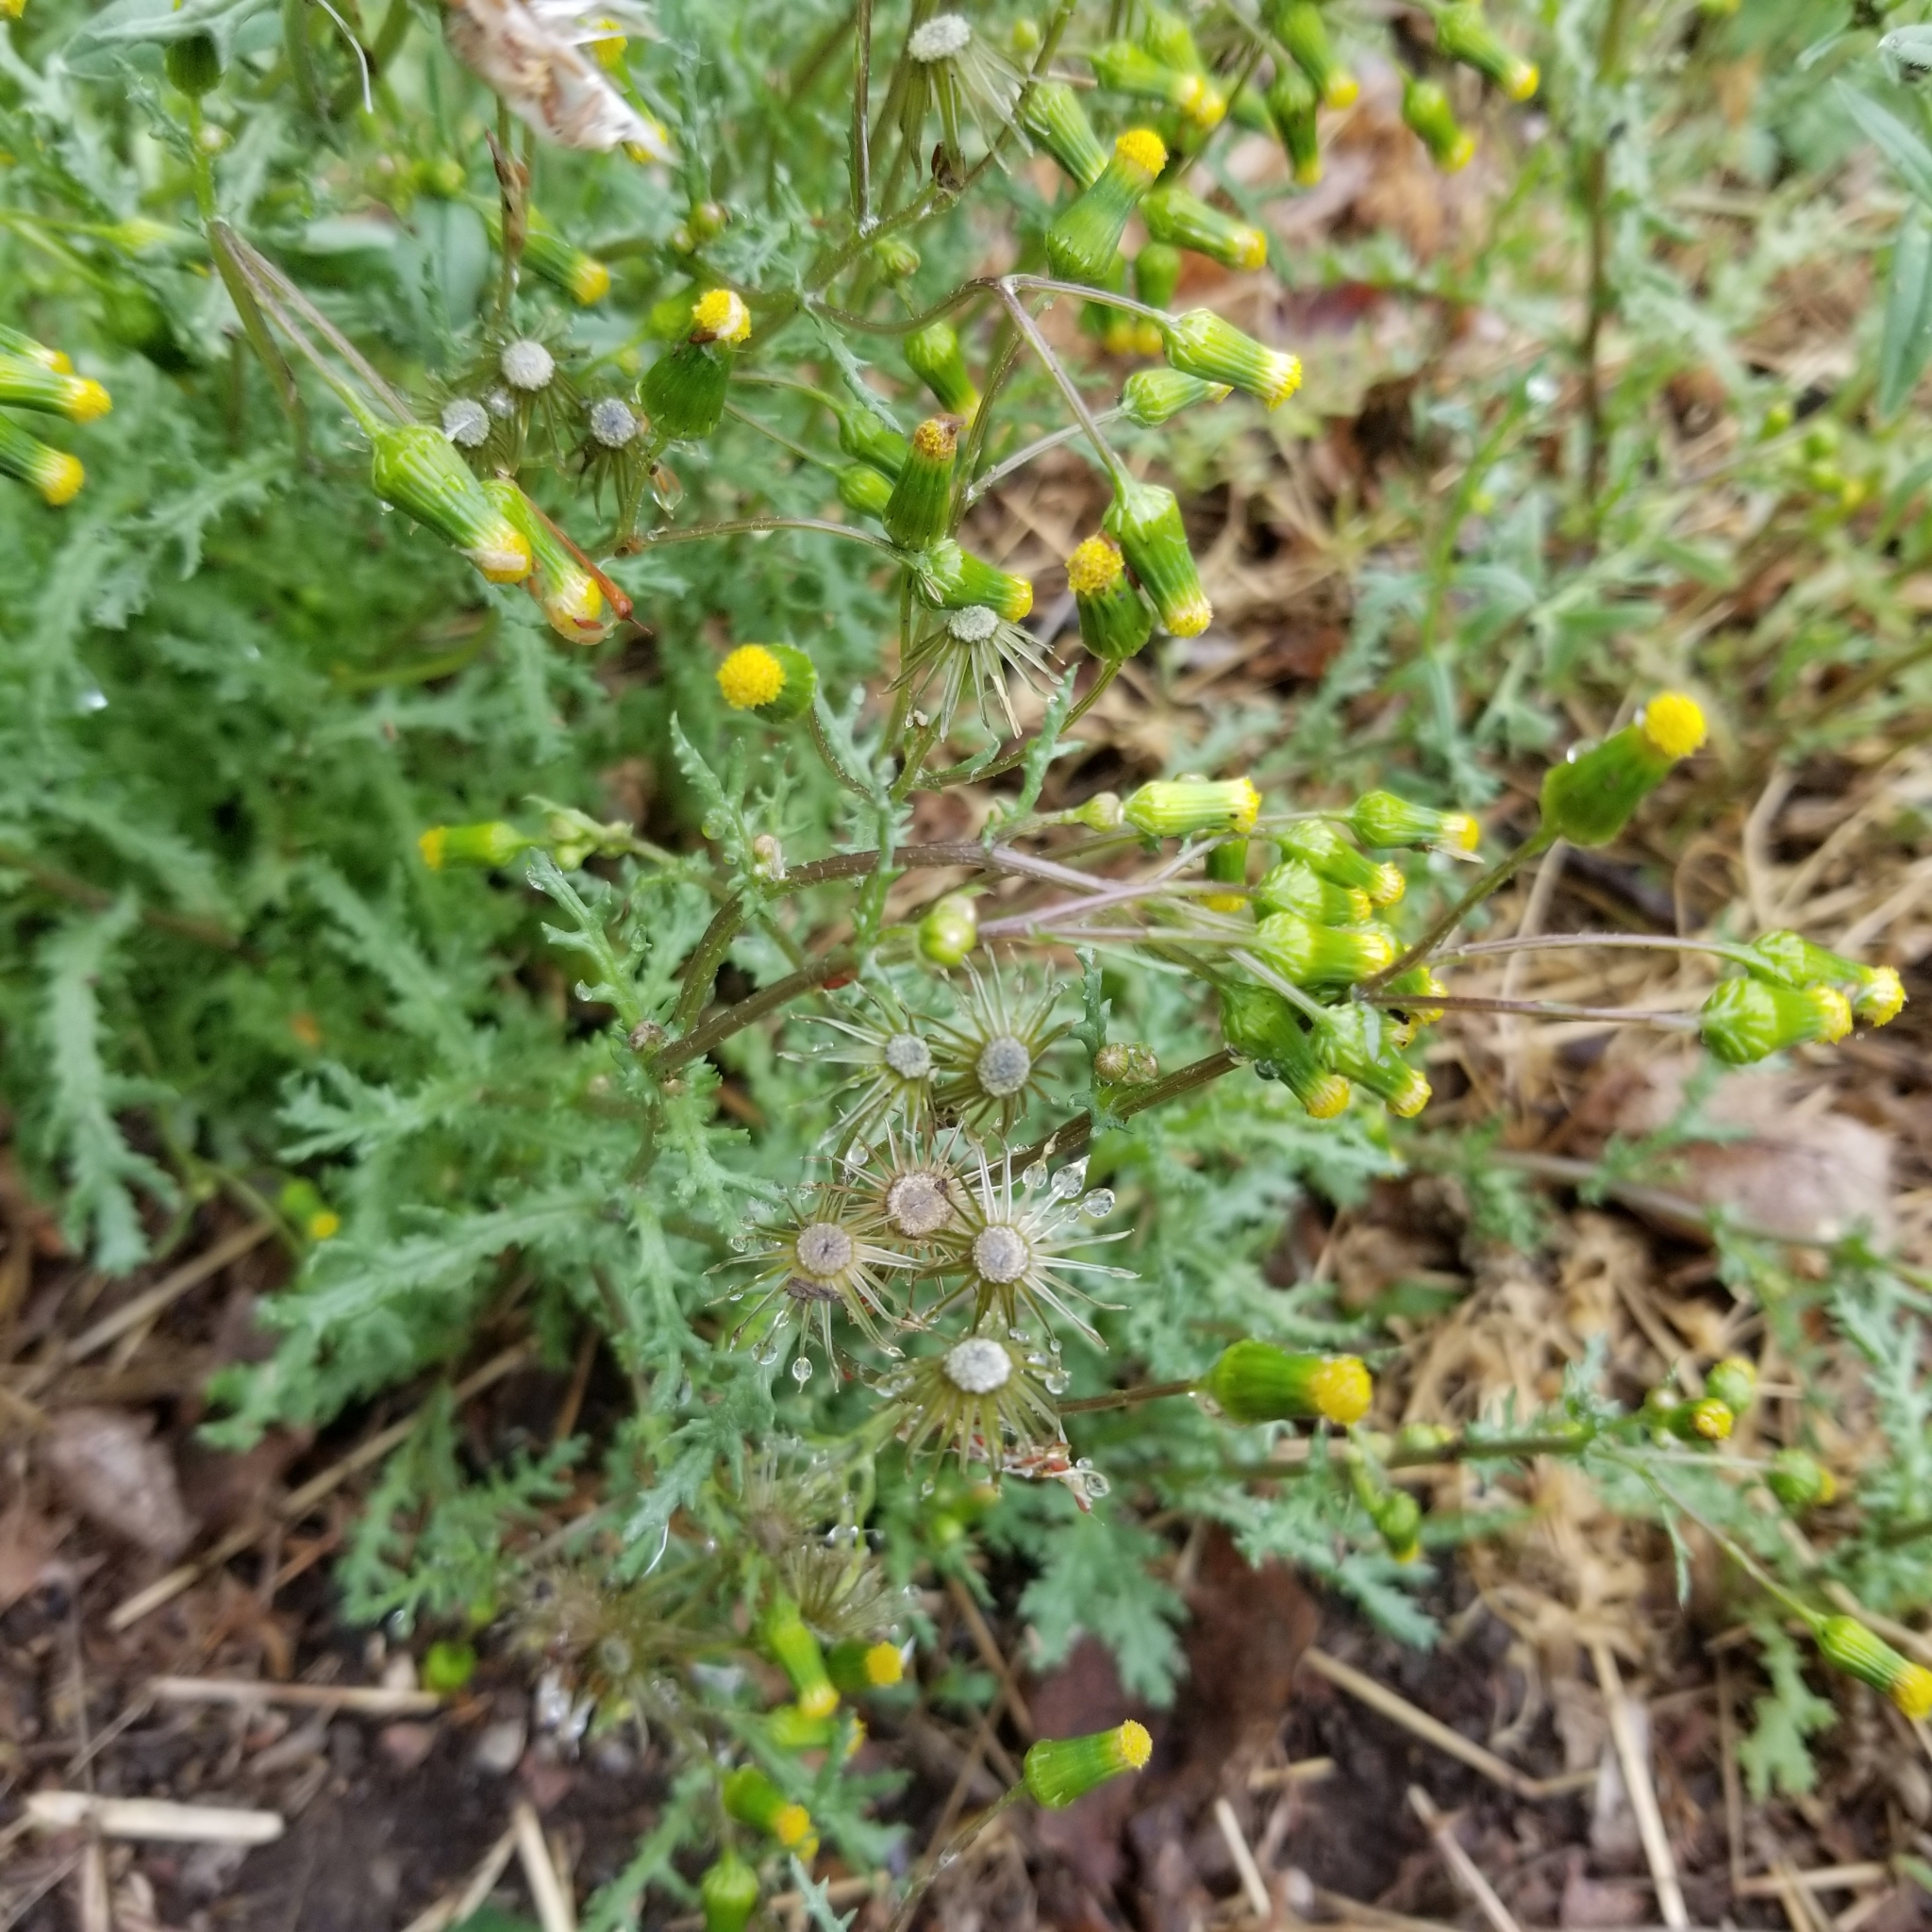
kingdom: Plantae
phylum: Tracheophyta
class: Magnoliopsida
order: Asterales
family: Asteraceae
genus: Senecio
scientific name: Senecio vulgaris
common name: Old-man-in-the-spring
